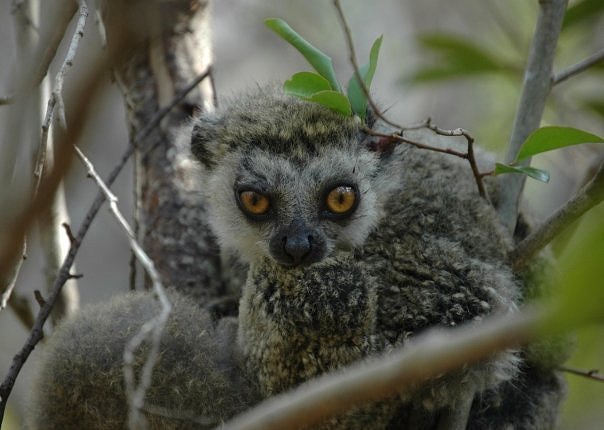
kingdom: Animalia
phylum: Chordata
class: Mammalia
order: Primates
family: Indriidae
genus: Avahi
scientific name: Avahi occidentalis
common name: Western woolly lemur
